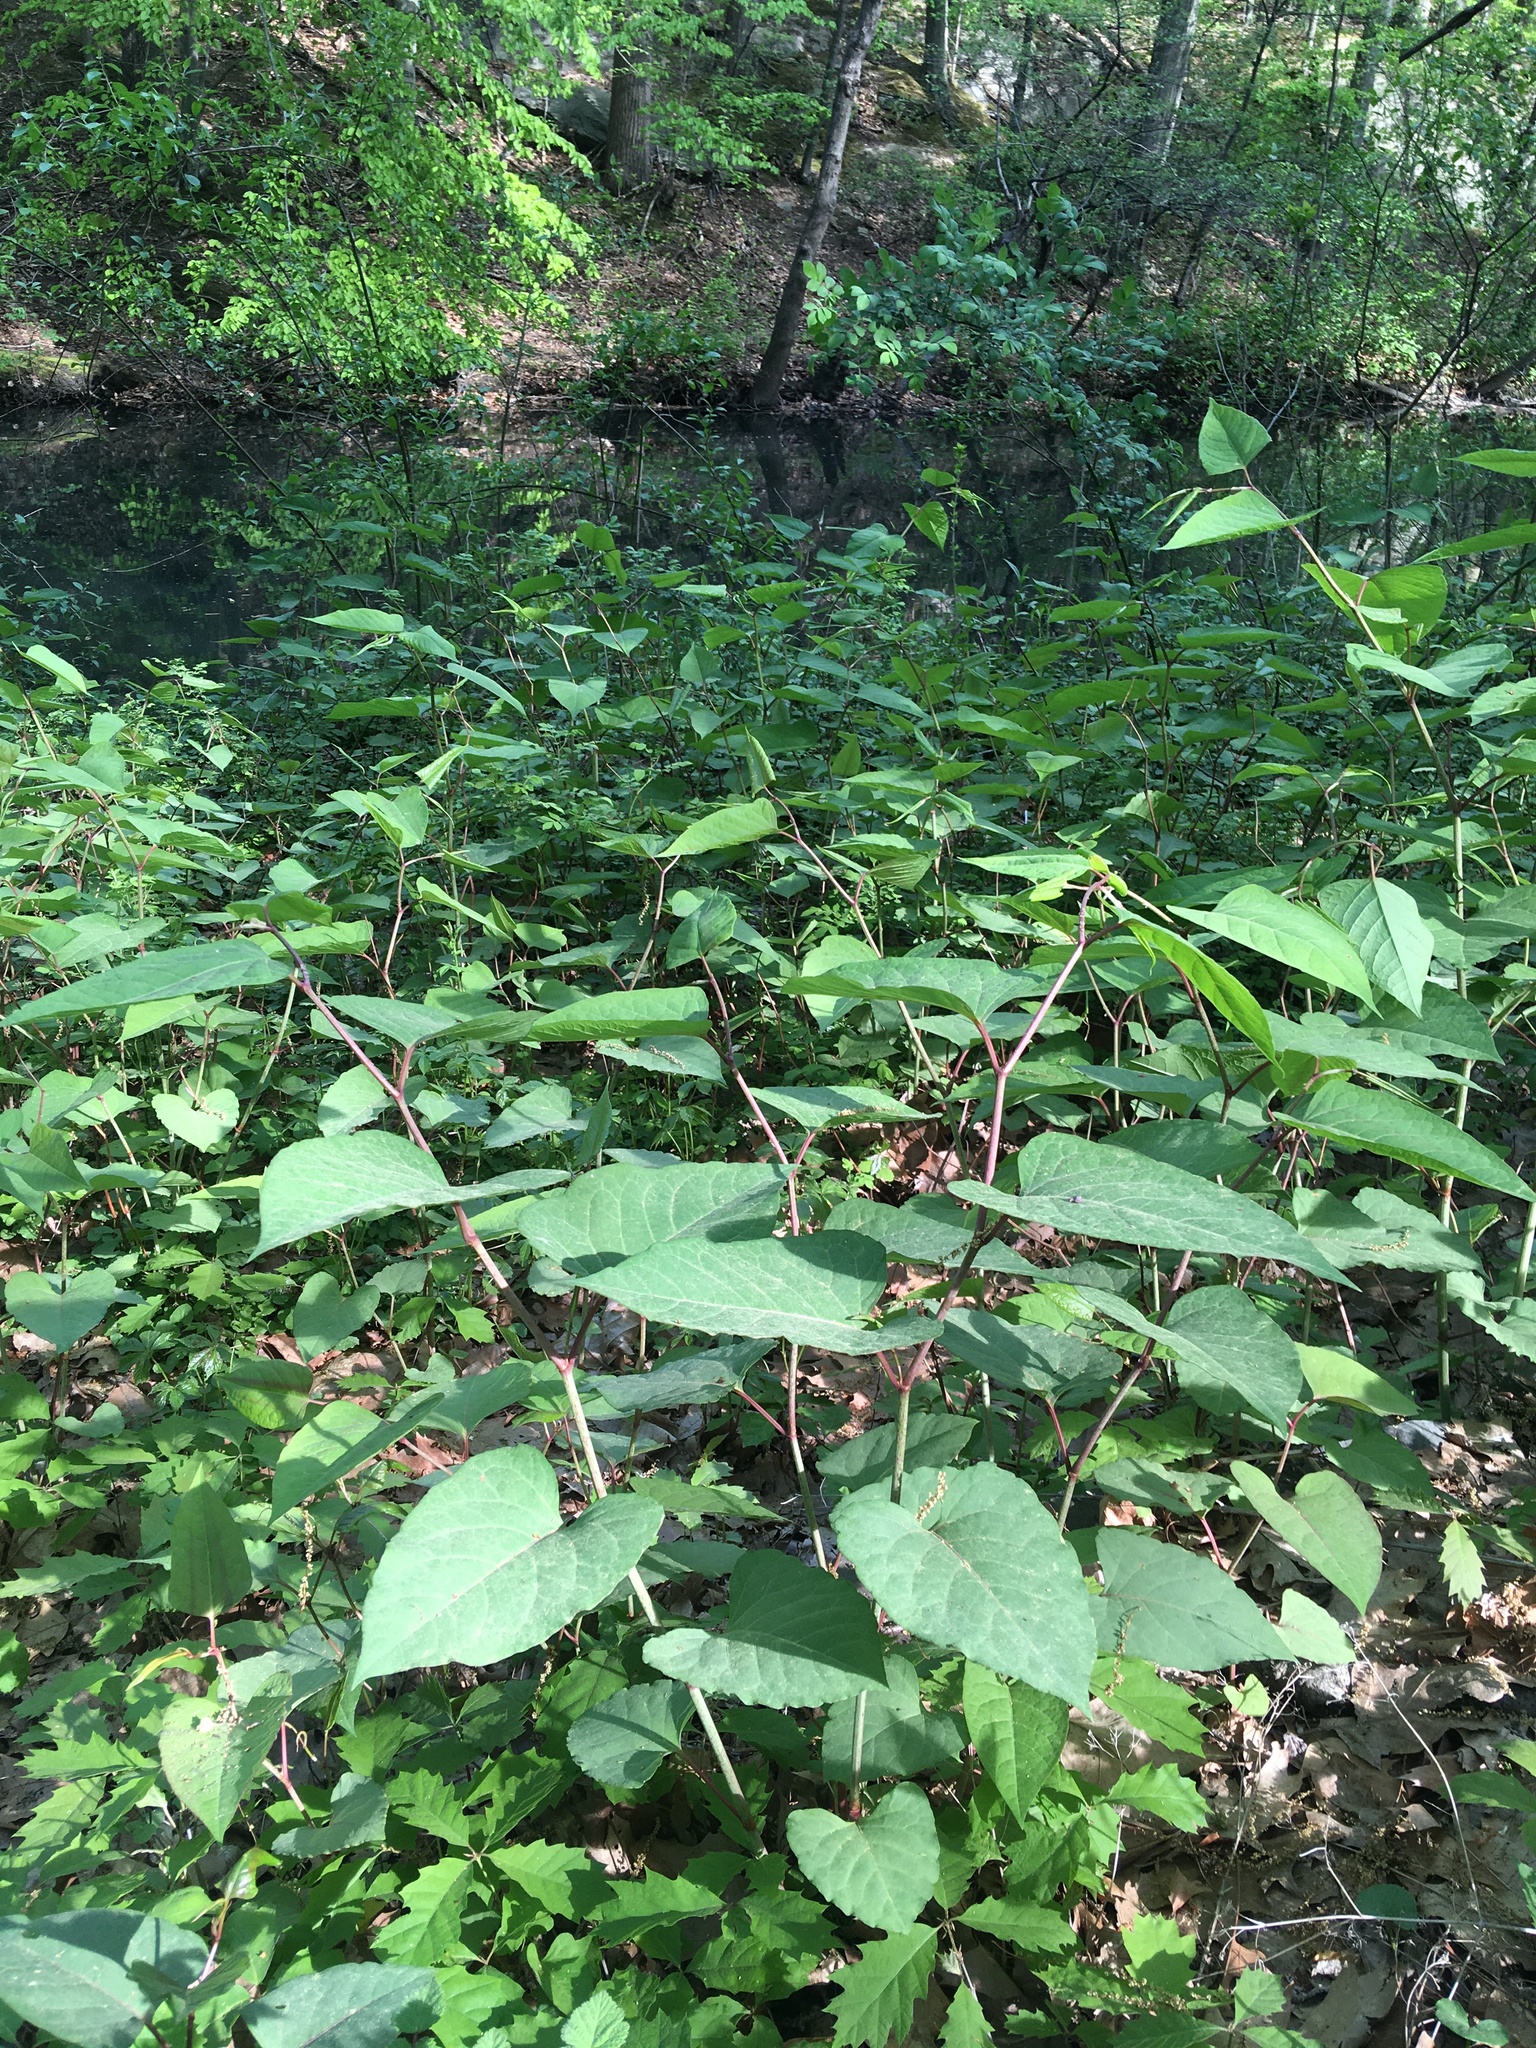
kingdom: Plantae
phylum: Tracheophyta
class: Magnoliopsida
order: Caryophyllales
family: Polygonaceae
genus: Reynoutria
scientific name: Reynoutria japonica
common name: Japanese knotweed
